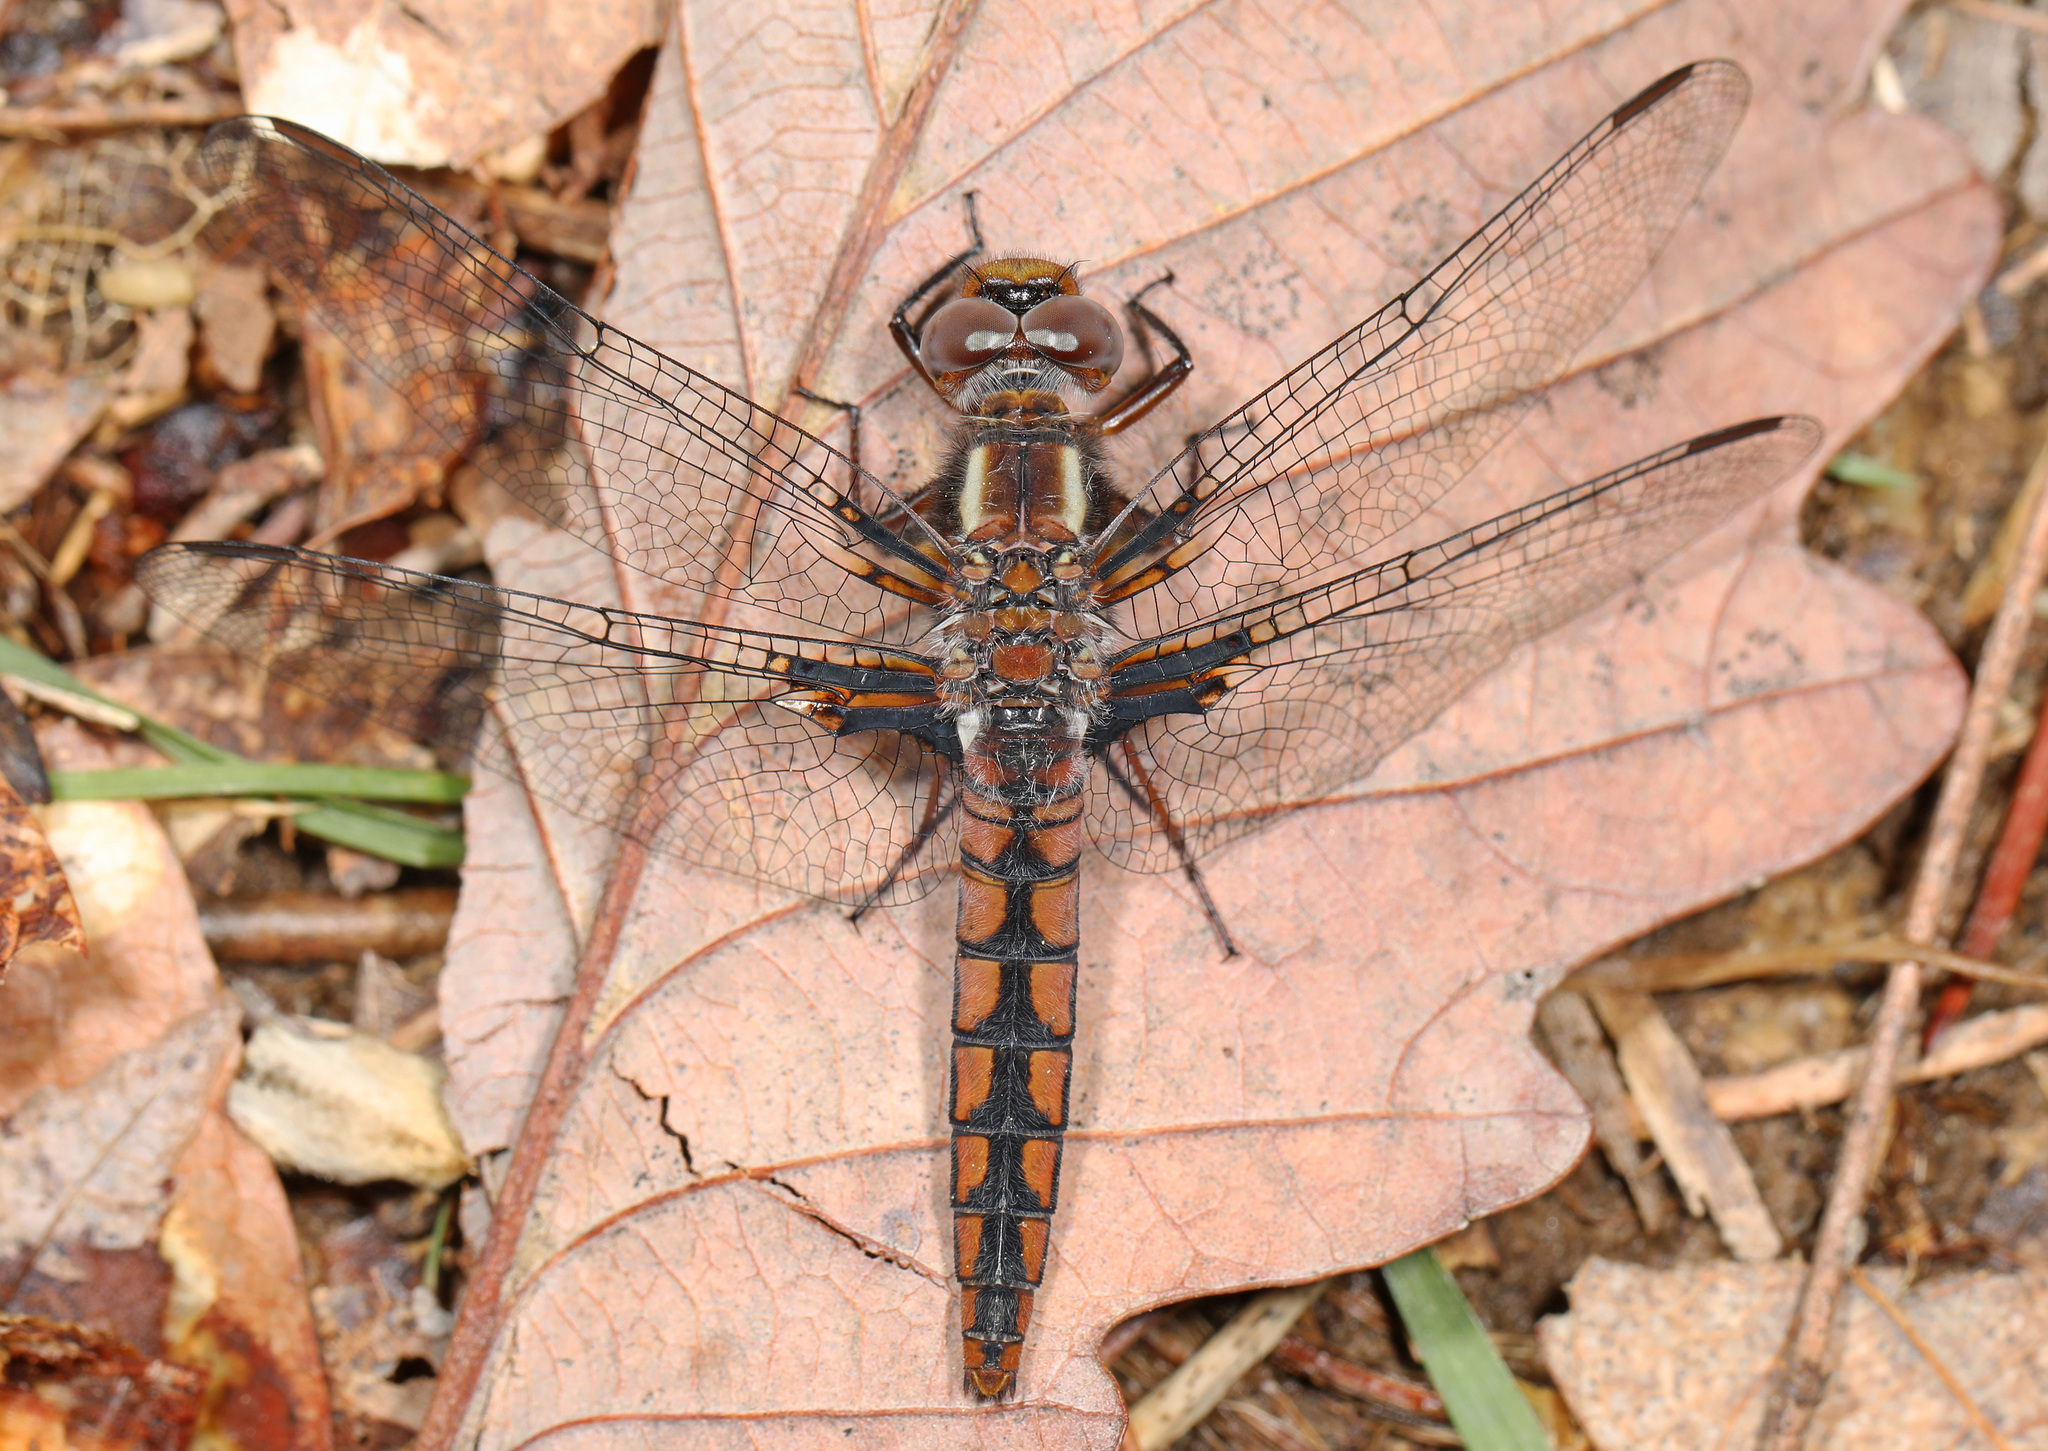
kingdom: Animalia
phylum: Arthropoda
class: Insecta
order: Odonata
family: Libellulidae
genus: Ladona
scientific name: Ladona deplanata
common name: Blue corporal
